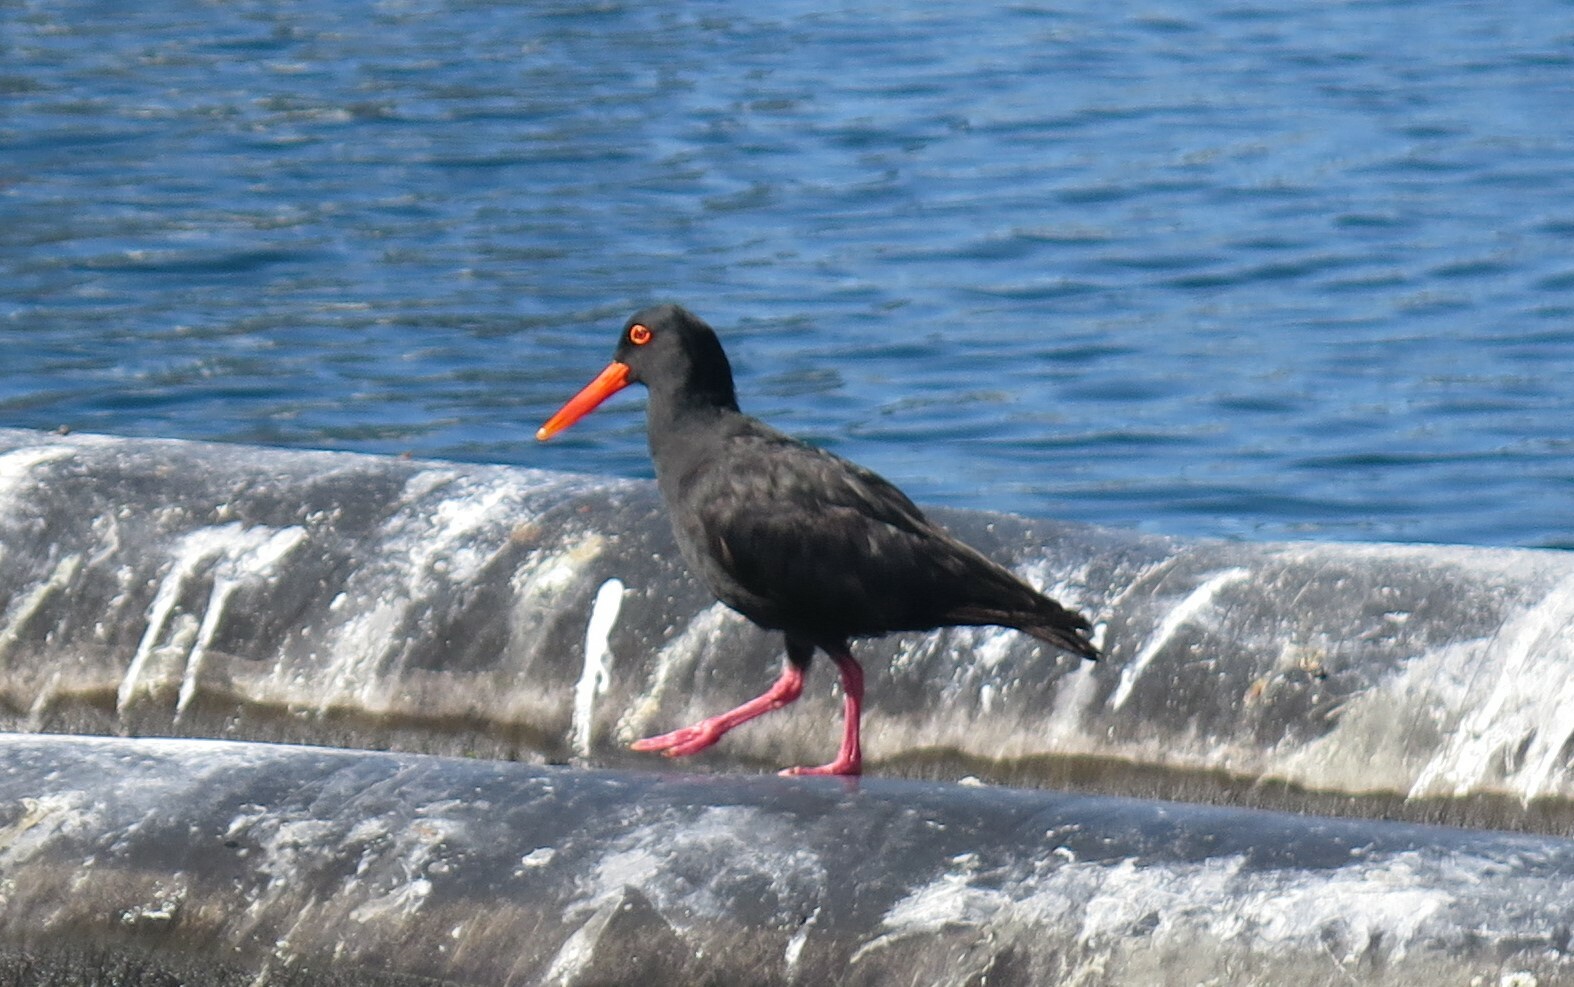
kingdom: Animalia
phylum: Chordata
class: Aves
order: Charadriiformes
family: Haematopodidae
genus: Haematopus
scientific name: Haematopus moquini
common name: African oystercatcher
